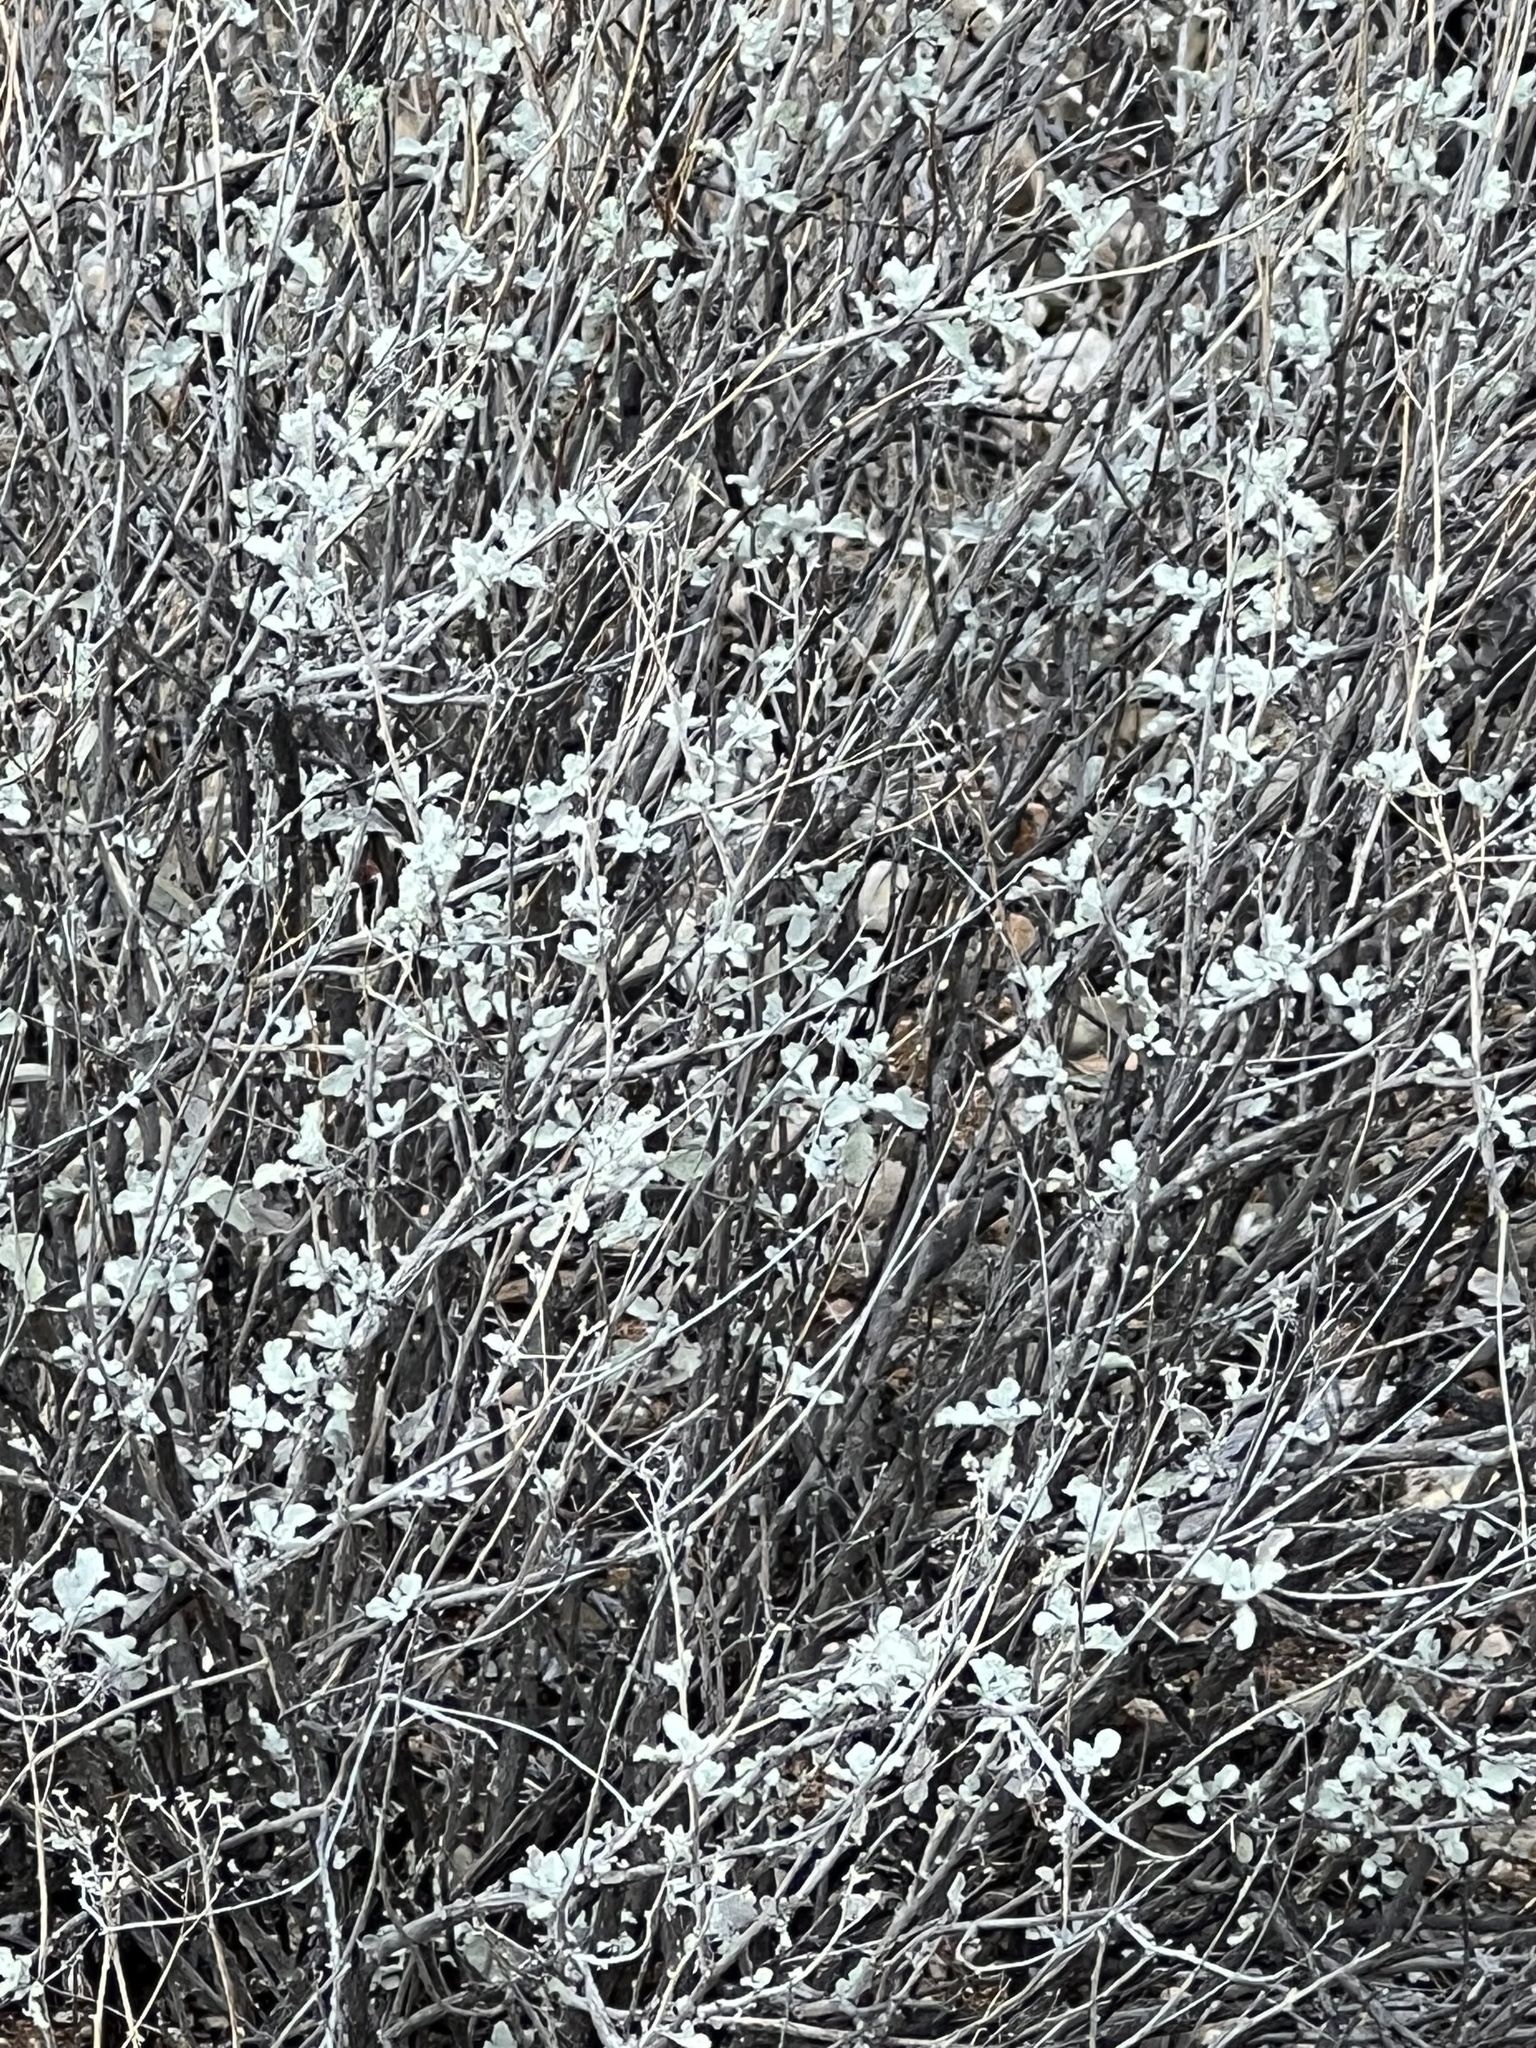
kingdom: Plantae
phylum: Tracheophyta
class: Magnoliopsida
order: Asterales
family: Asteraceae
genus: Parthenium
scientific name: Parthenium incanum
